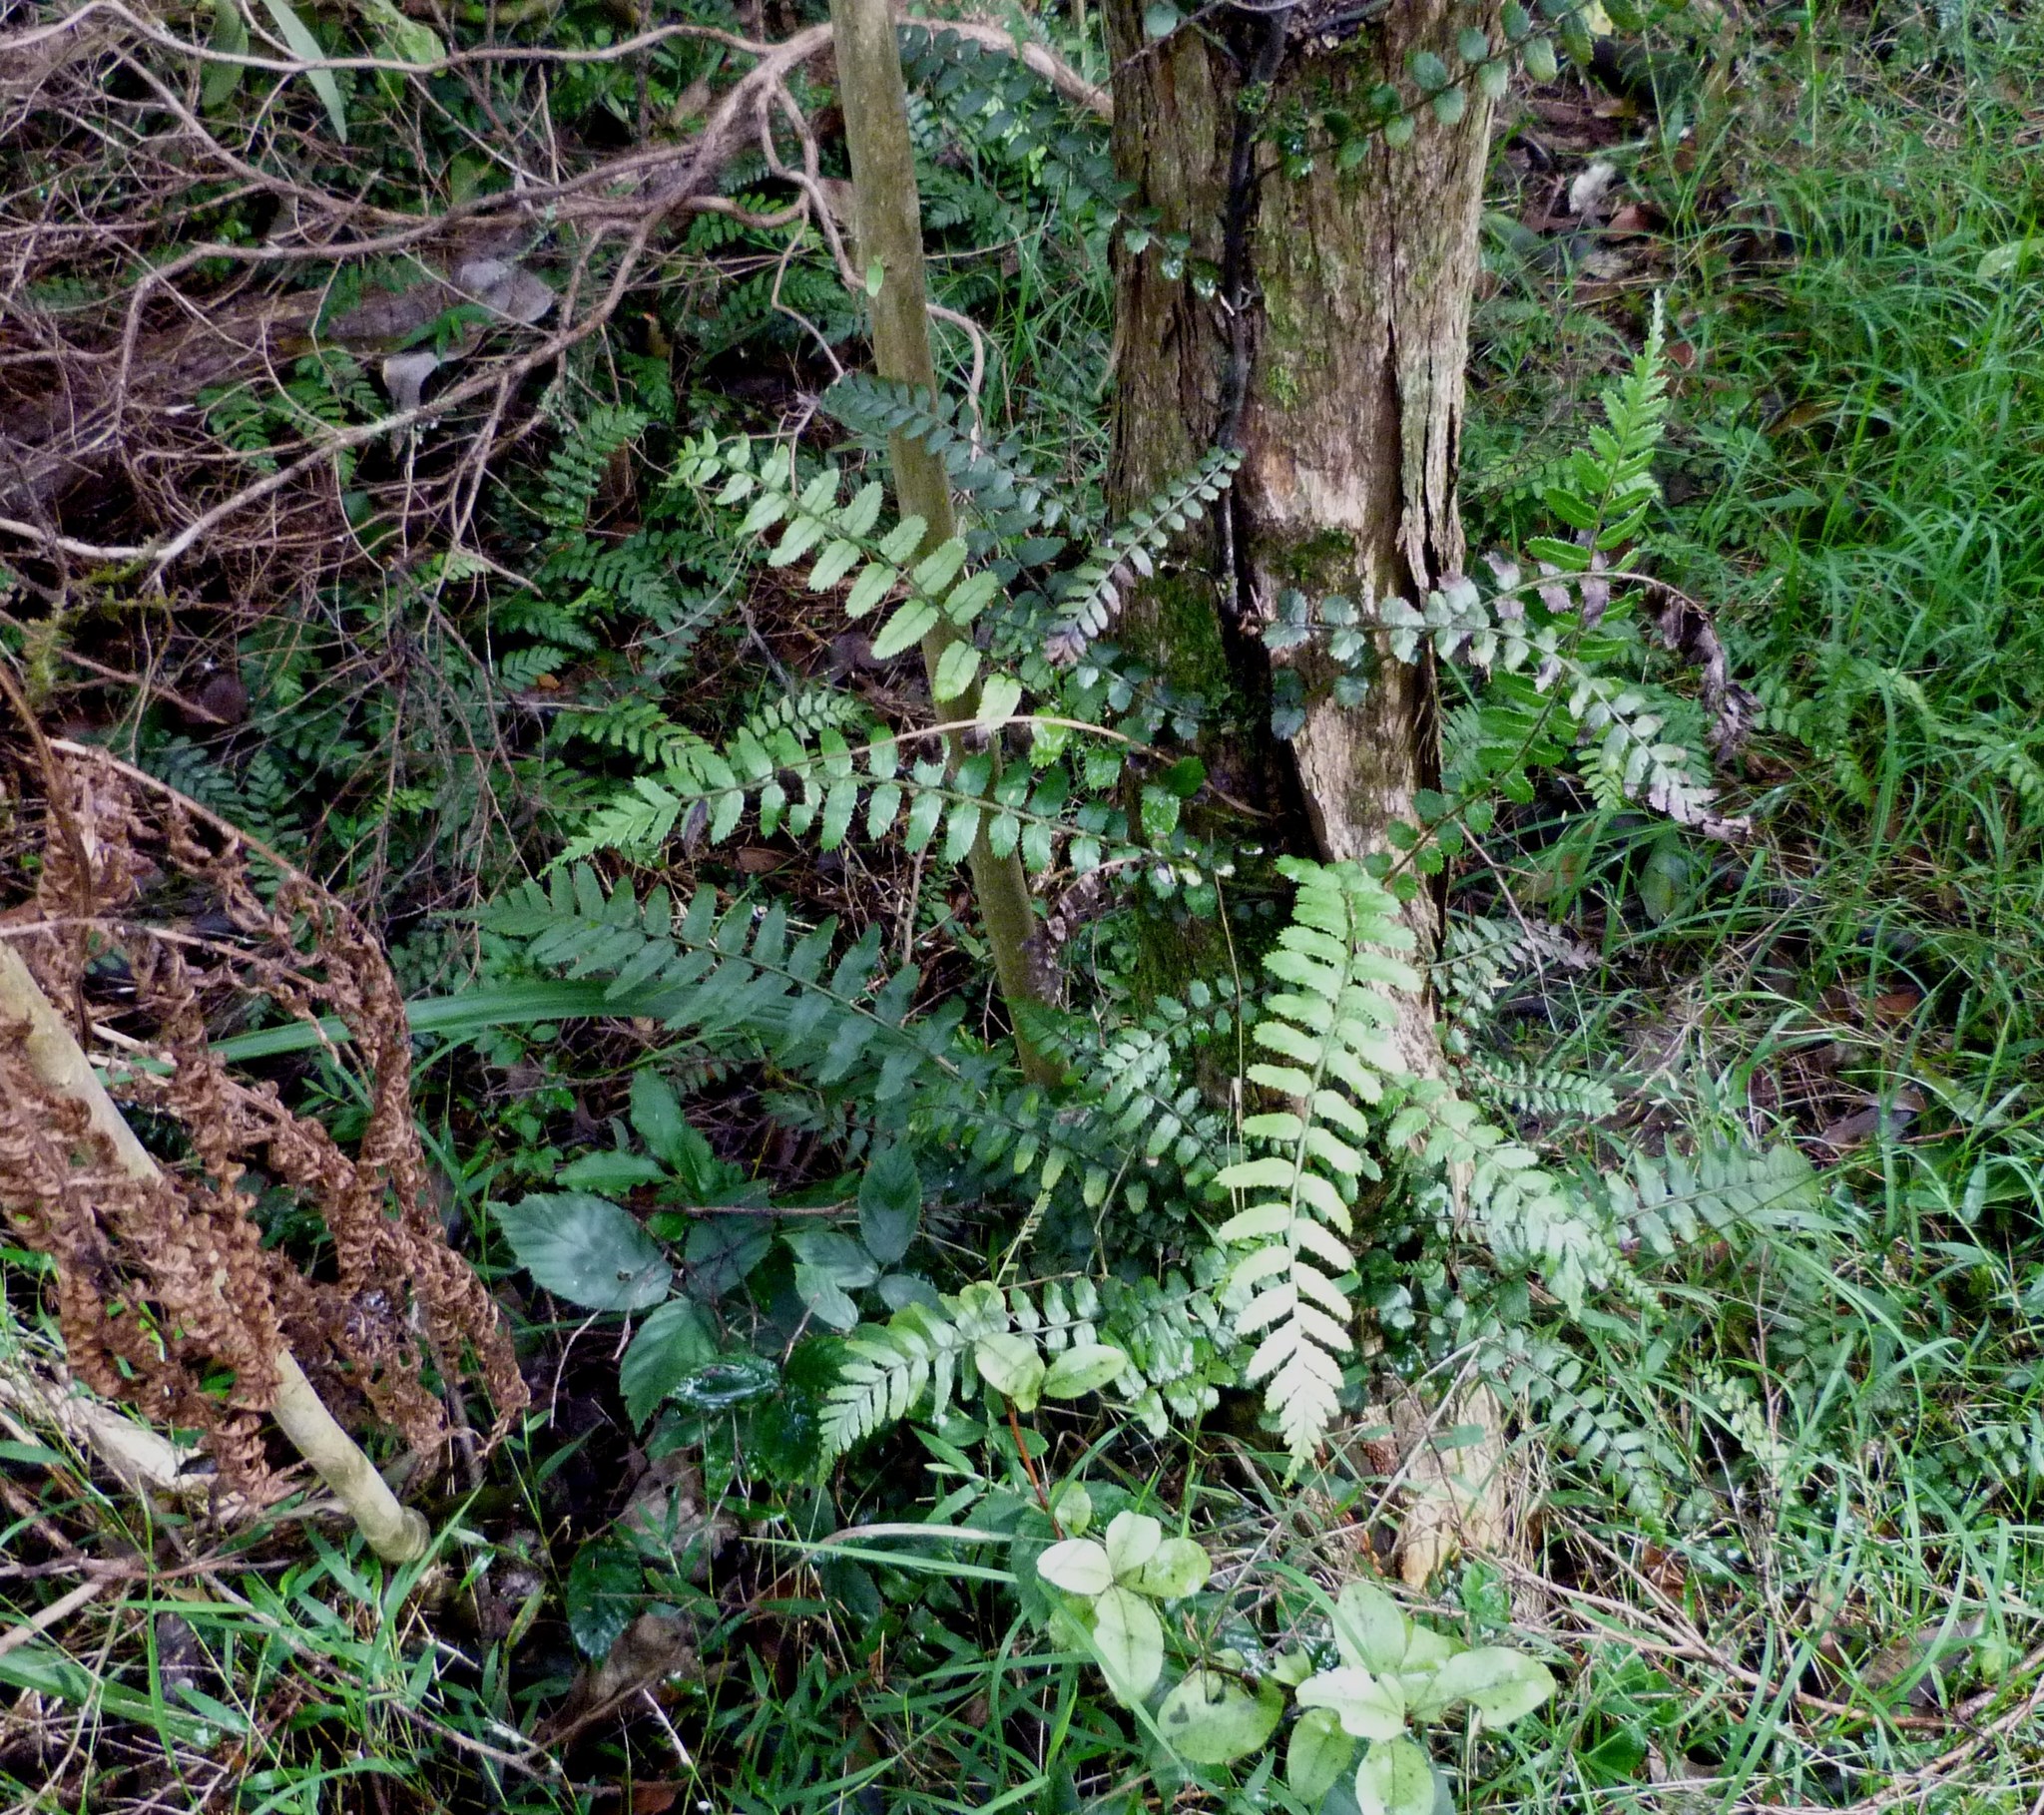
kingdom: Plantae
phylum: Tracheophyta
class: Polypodiopsida
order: Polypodiales
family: Blechnaceae
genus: Icarus
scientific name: Icarus filiformis
